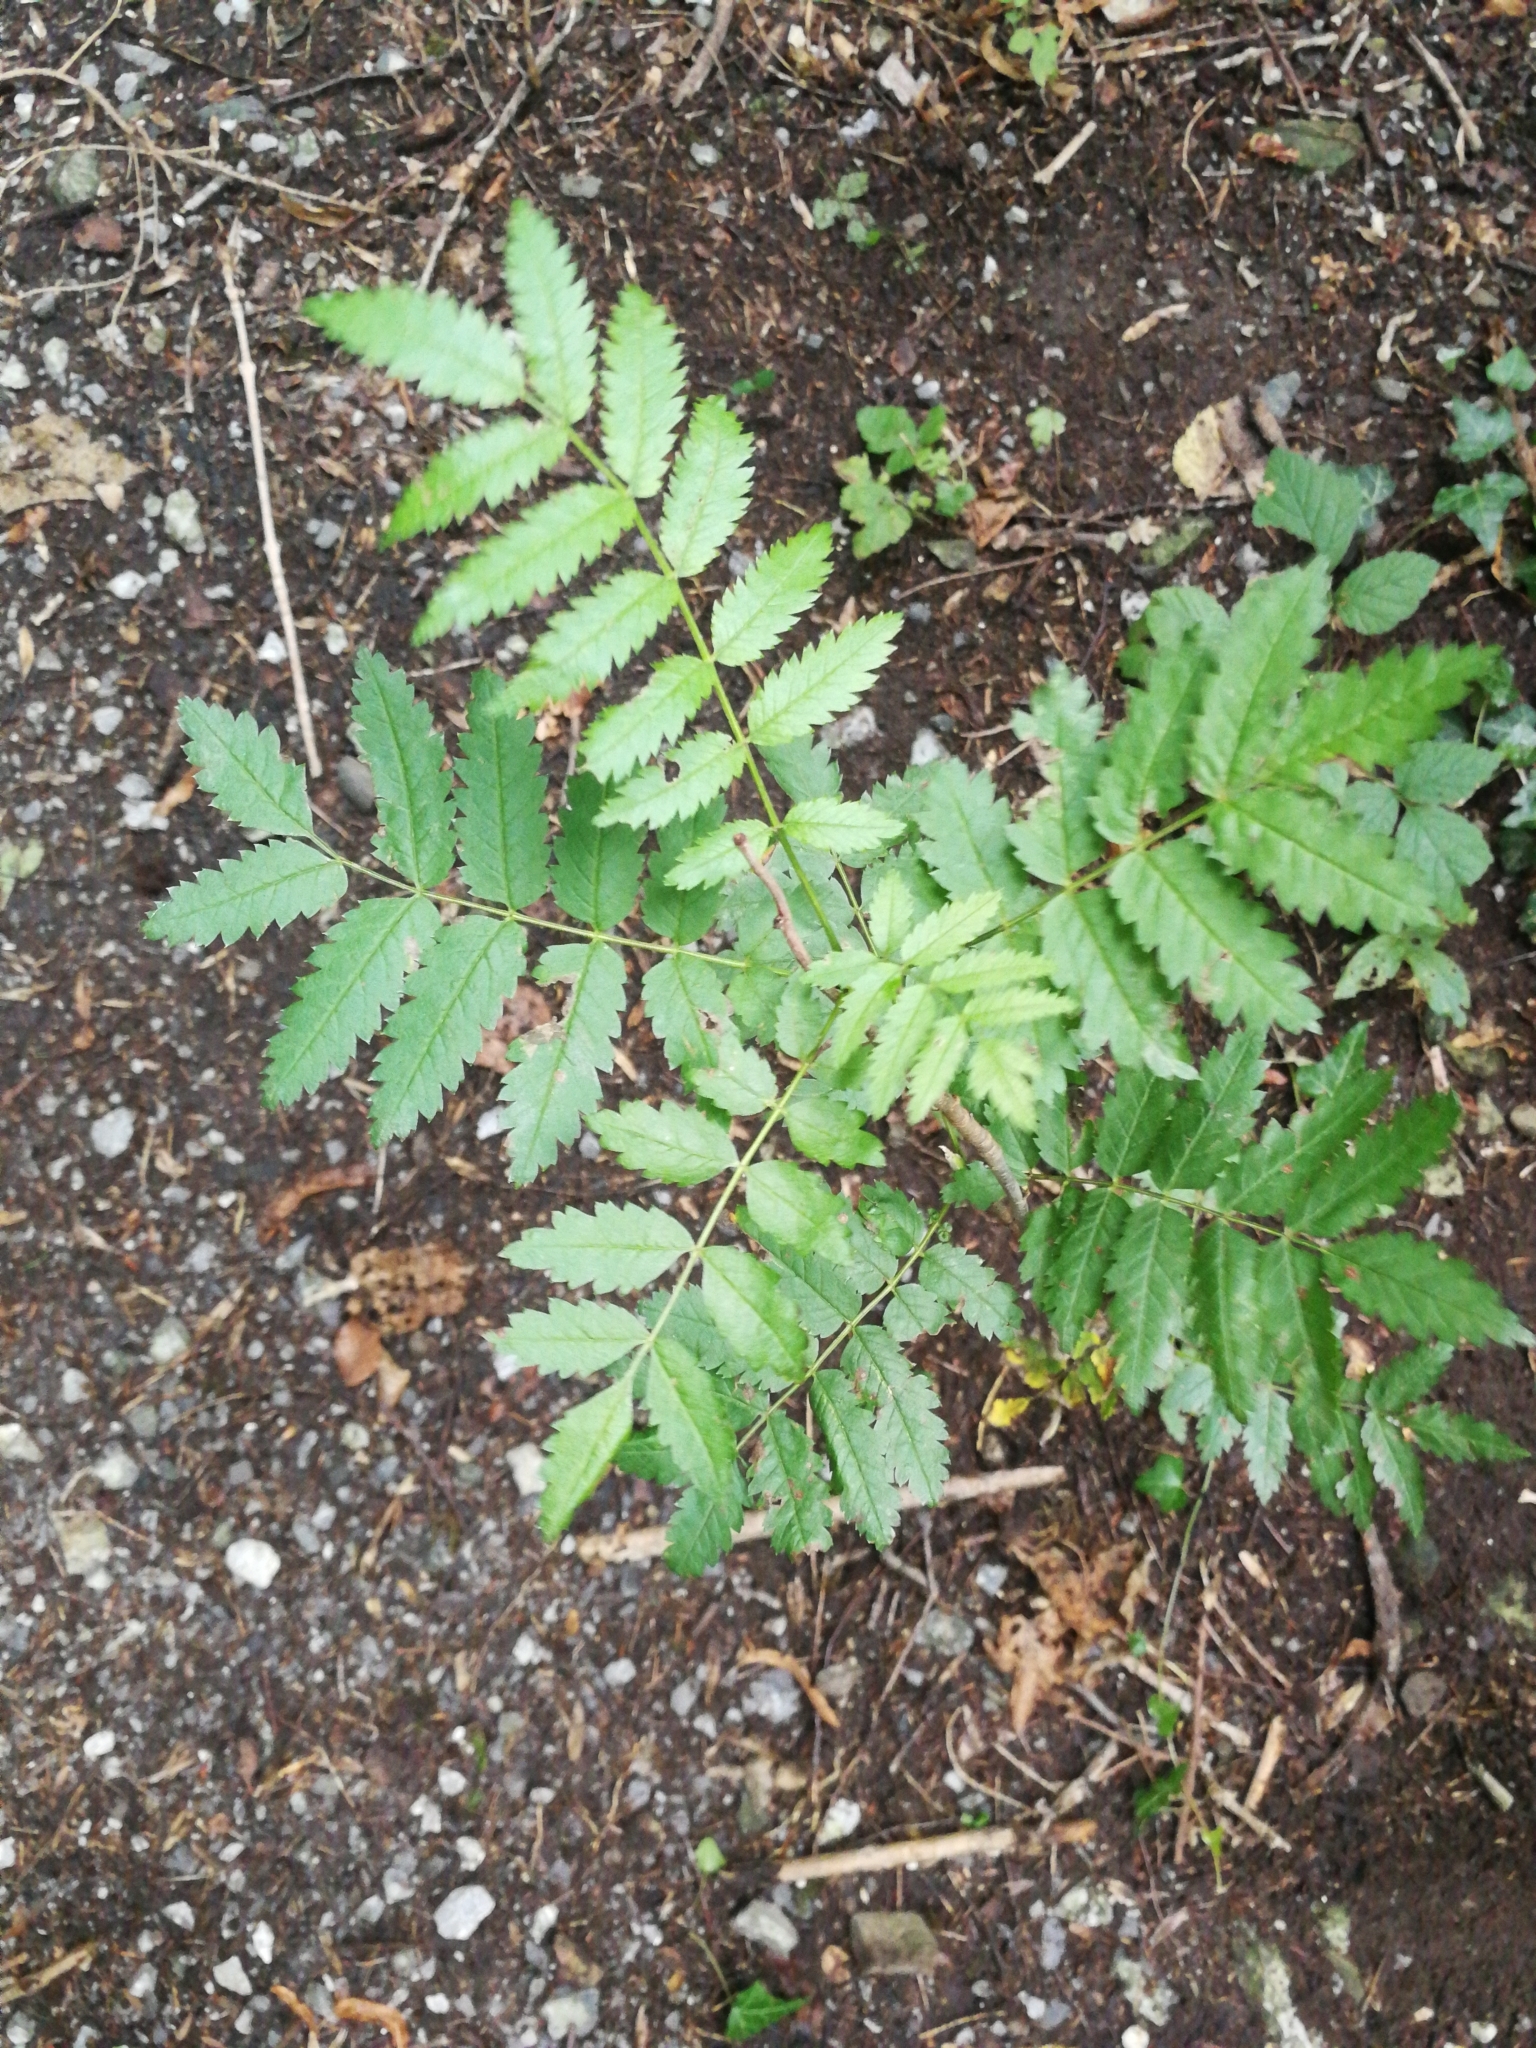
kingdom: Plantae
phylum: Tracheophyta
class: Magnoliopsida
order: Rosales
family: Rosaceae
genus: Sorbus
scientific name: Sorbus aucuparia
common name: Rowan
